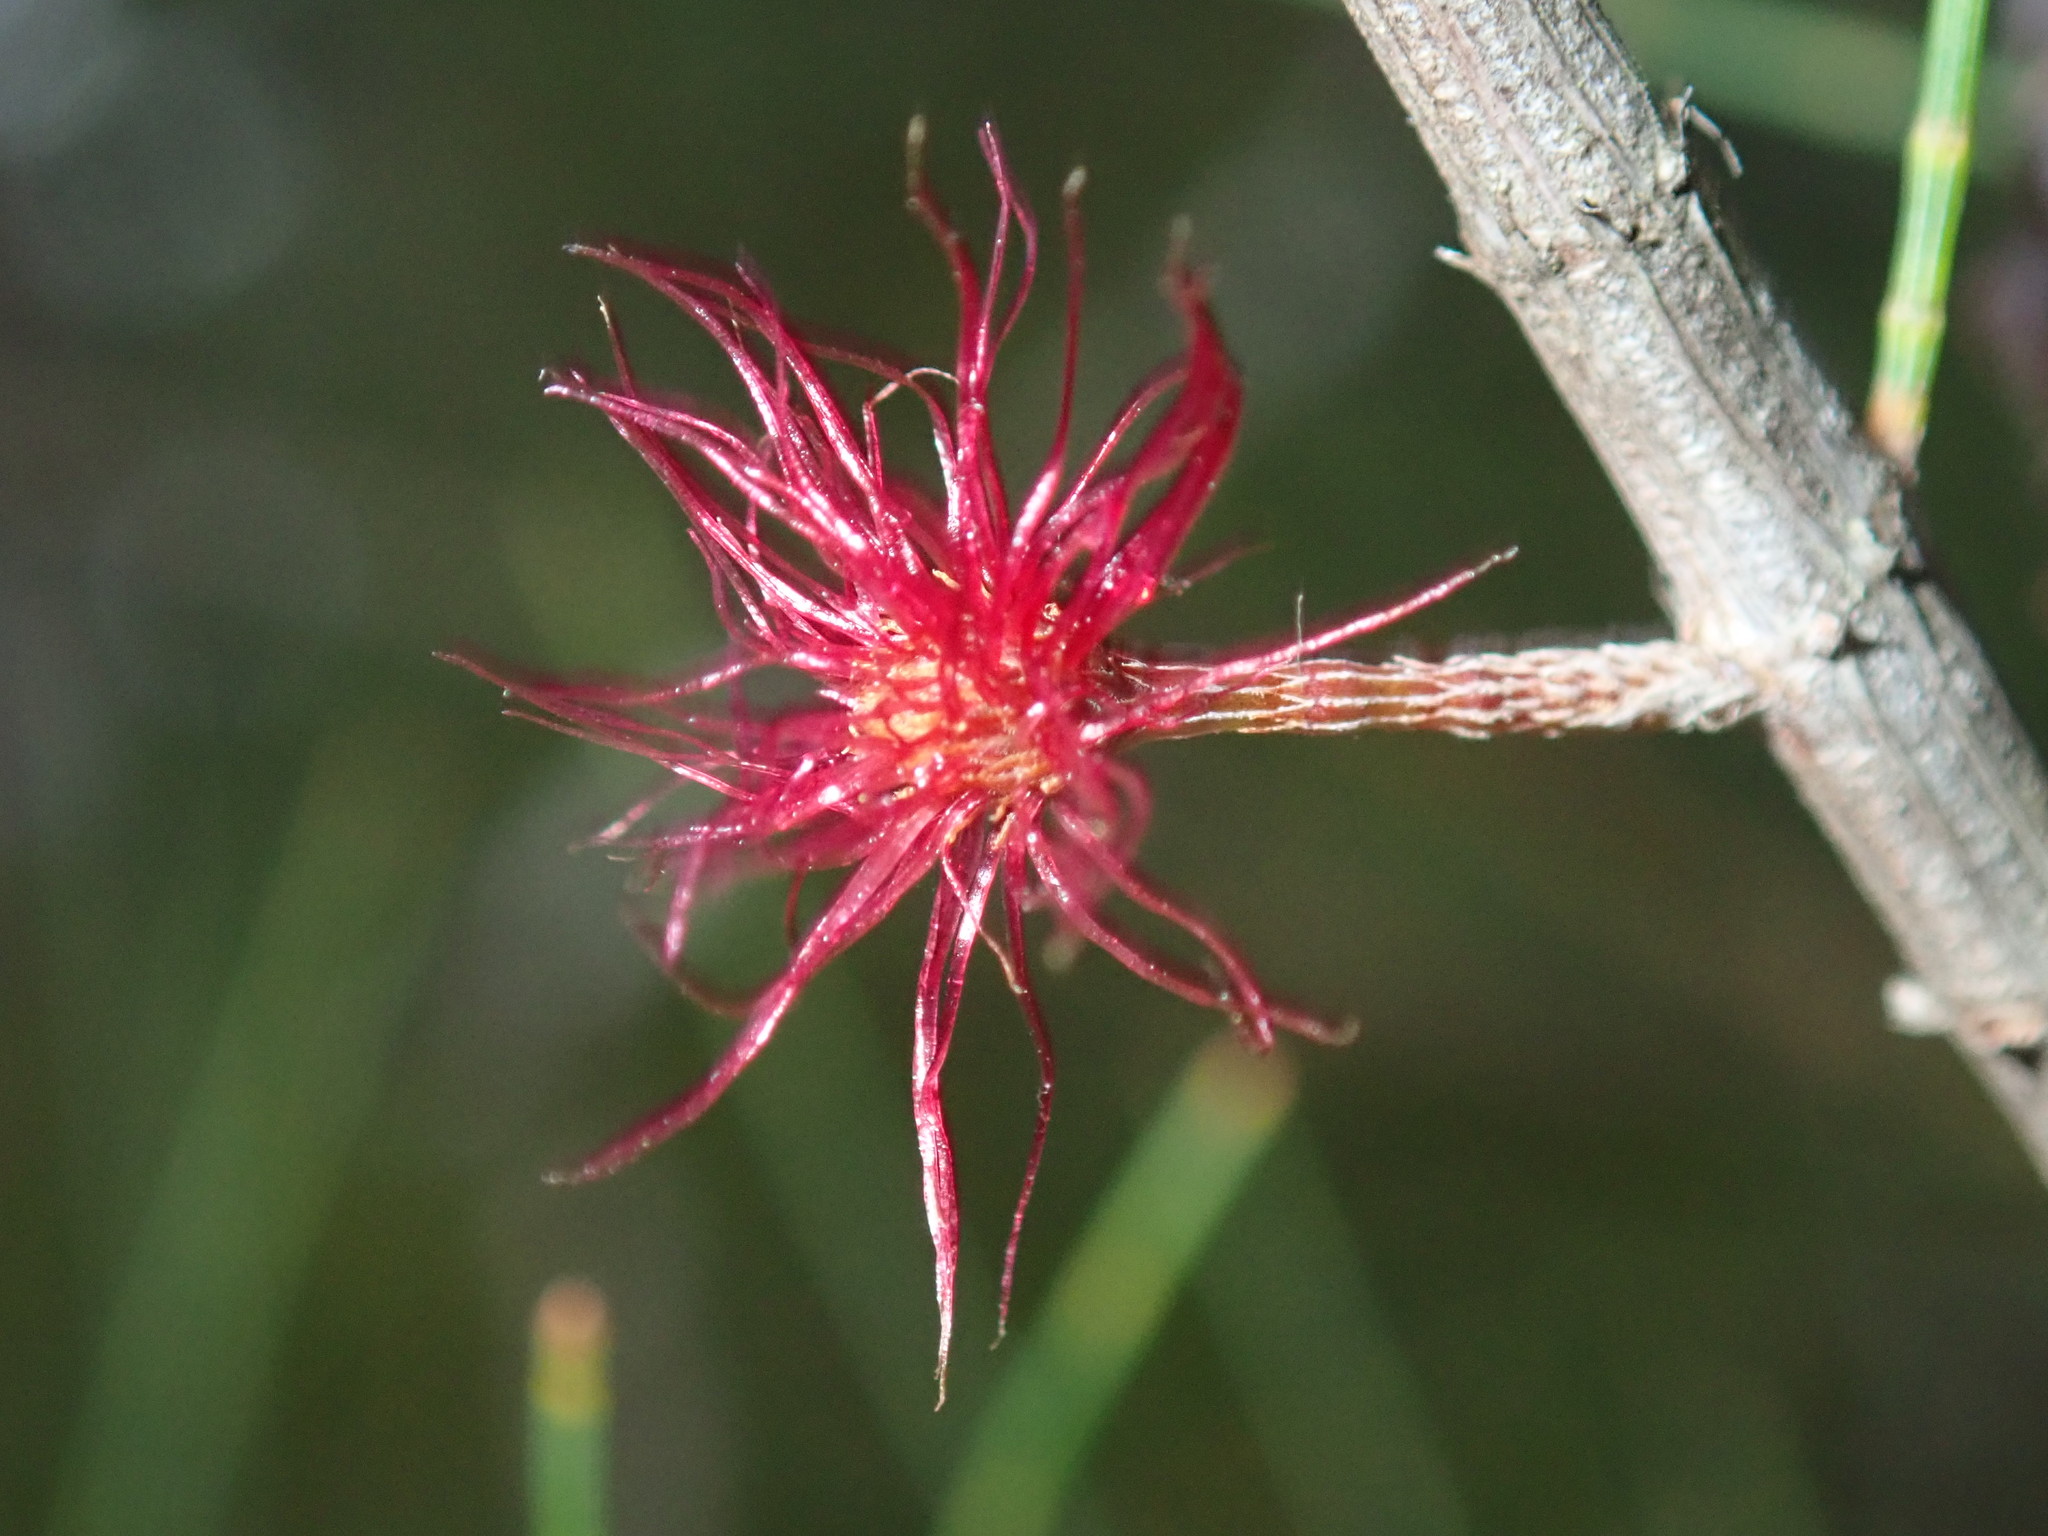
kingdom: Plantae
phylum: Tracheophyta
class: Magnoliopsida
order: Fagales
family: Casuarinaceae
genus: Allocasuarina
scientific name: Allocasuarina littoralis
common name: Black she-oak
